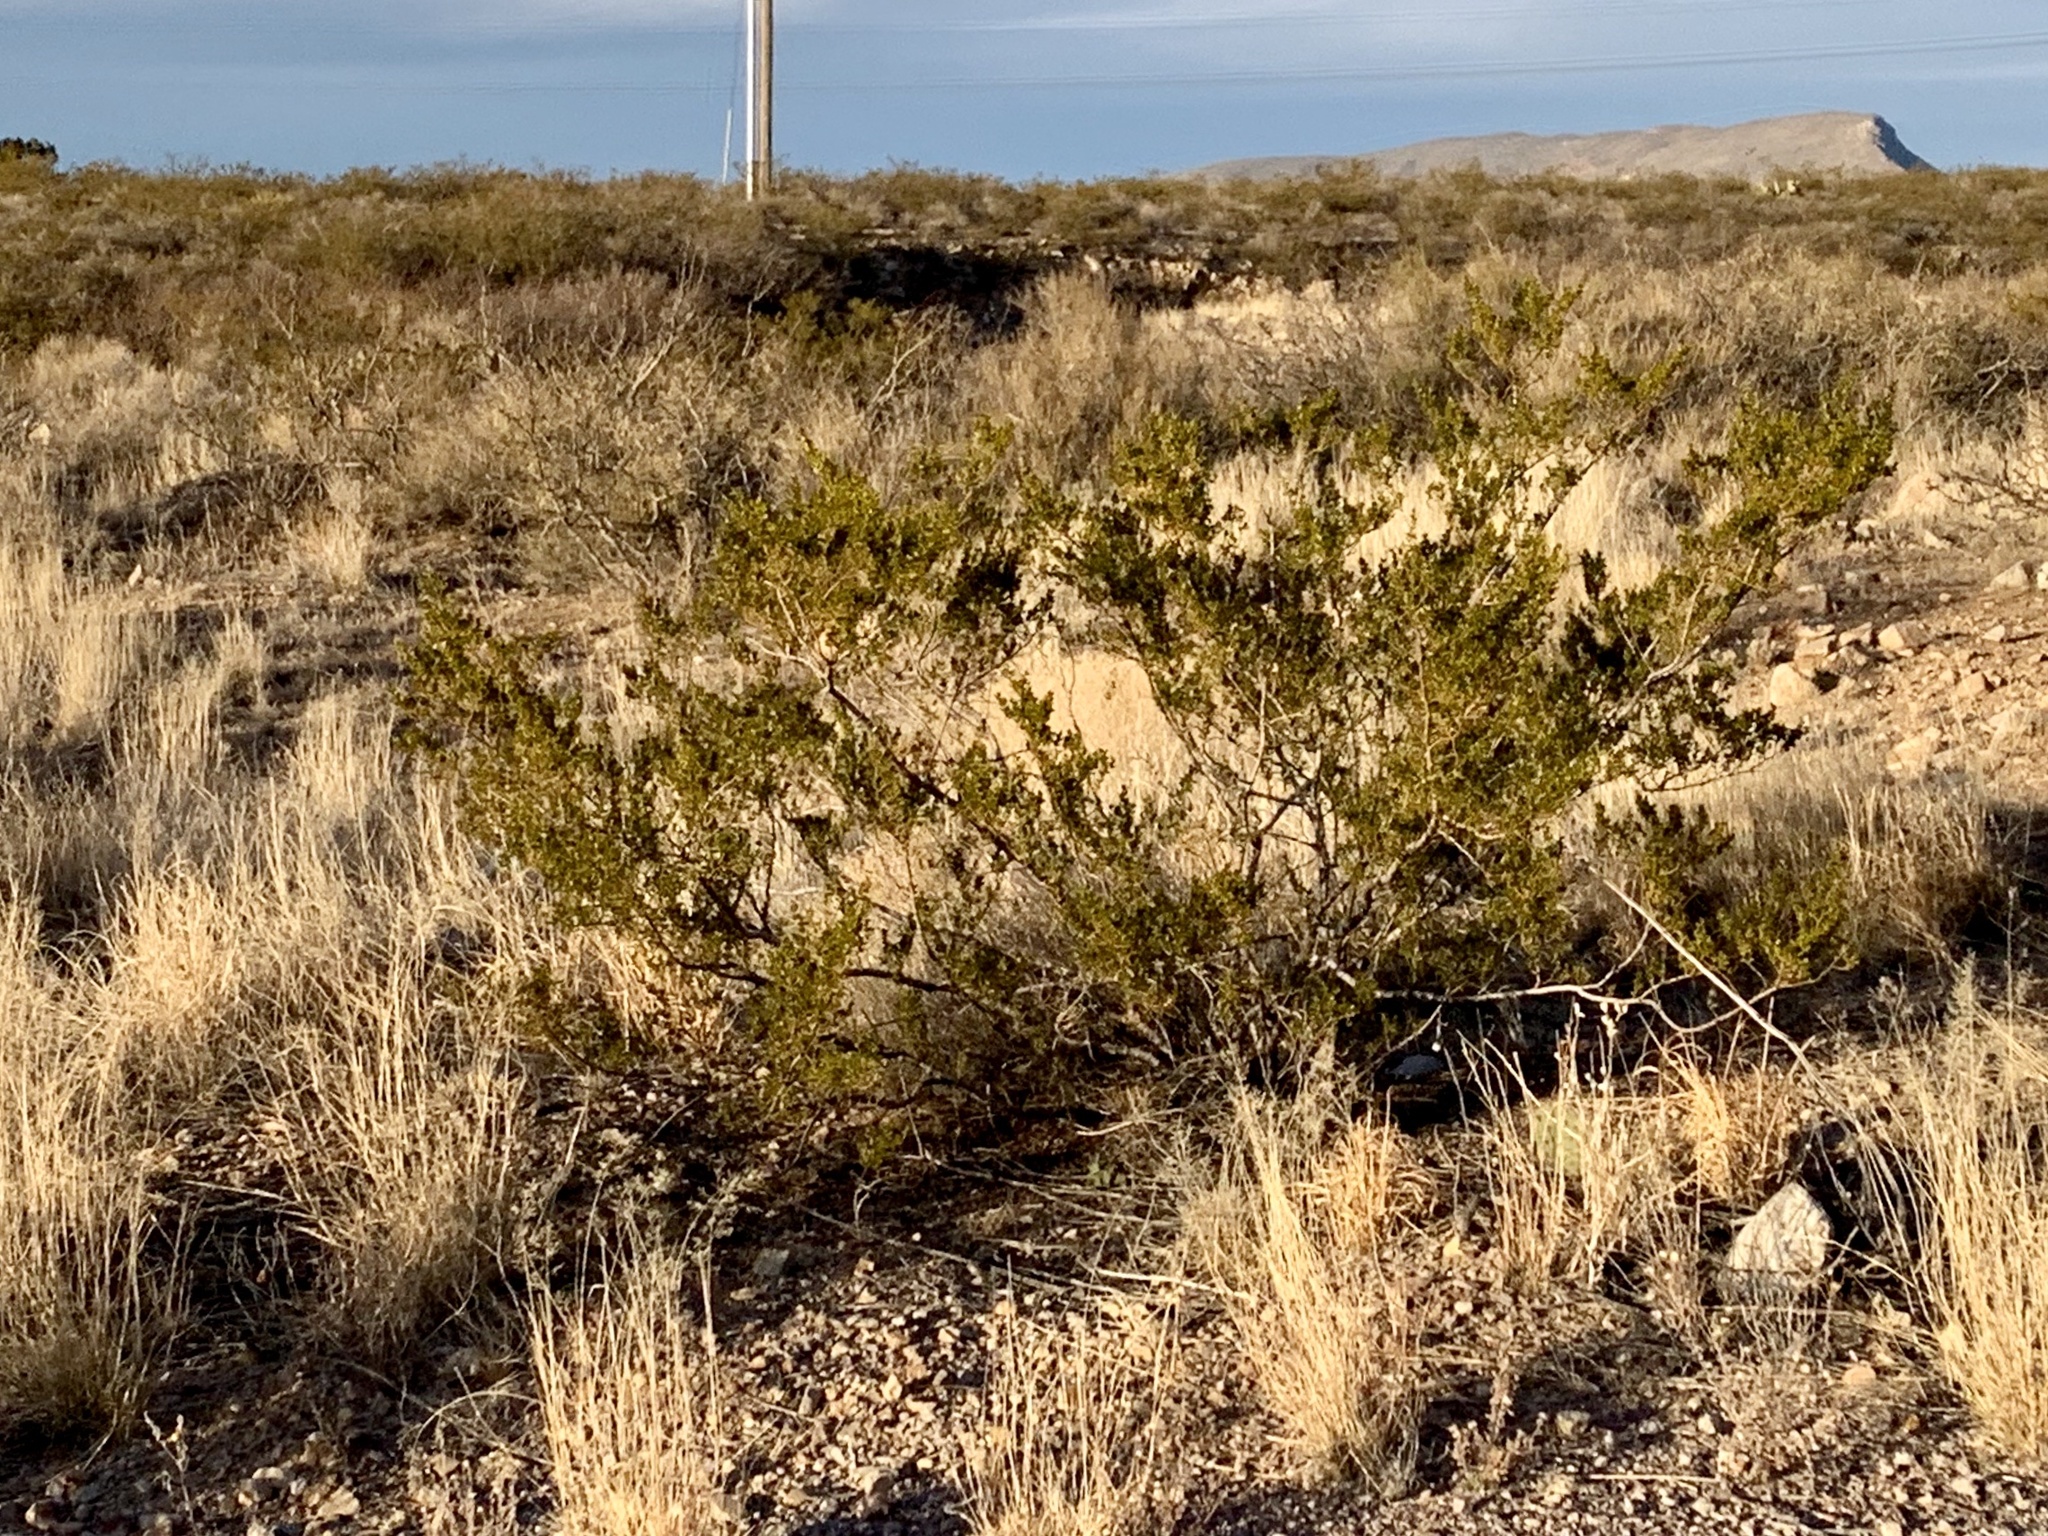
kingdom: Plantae
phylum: Tracheophyta
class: Magnoliopsida
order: Zygophyllales
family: Zygophyllaceae
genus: Larrea
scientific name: Larrea tridentata
